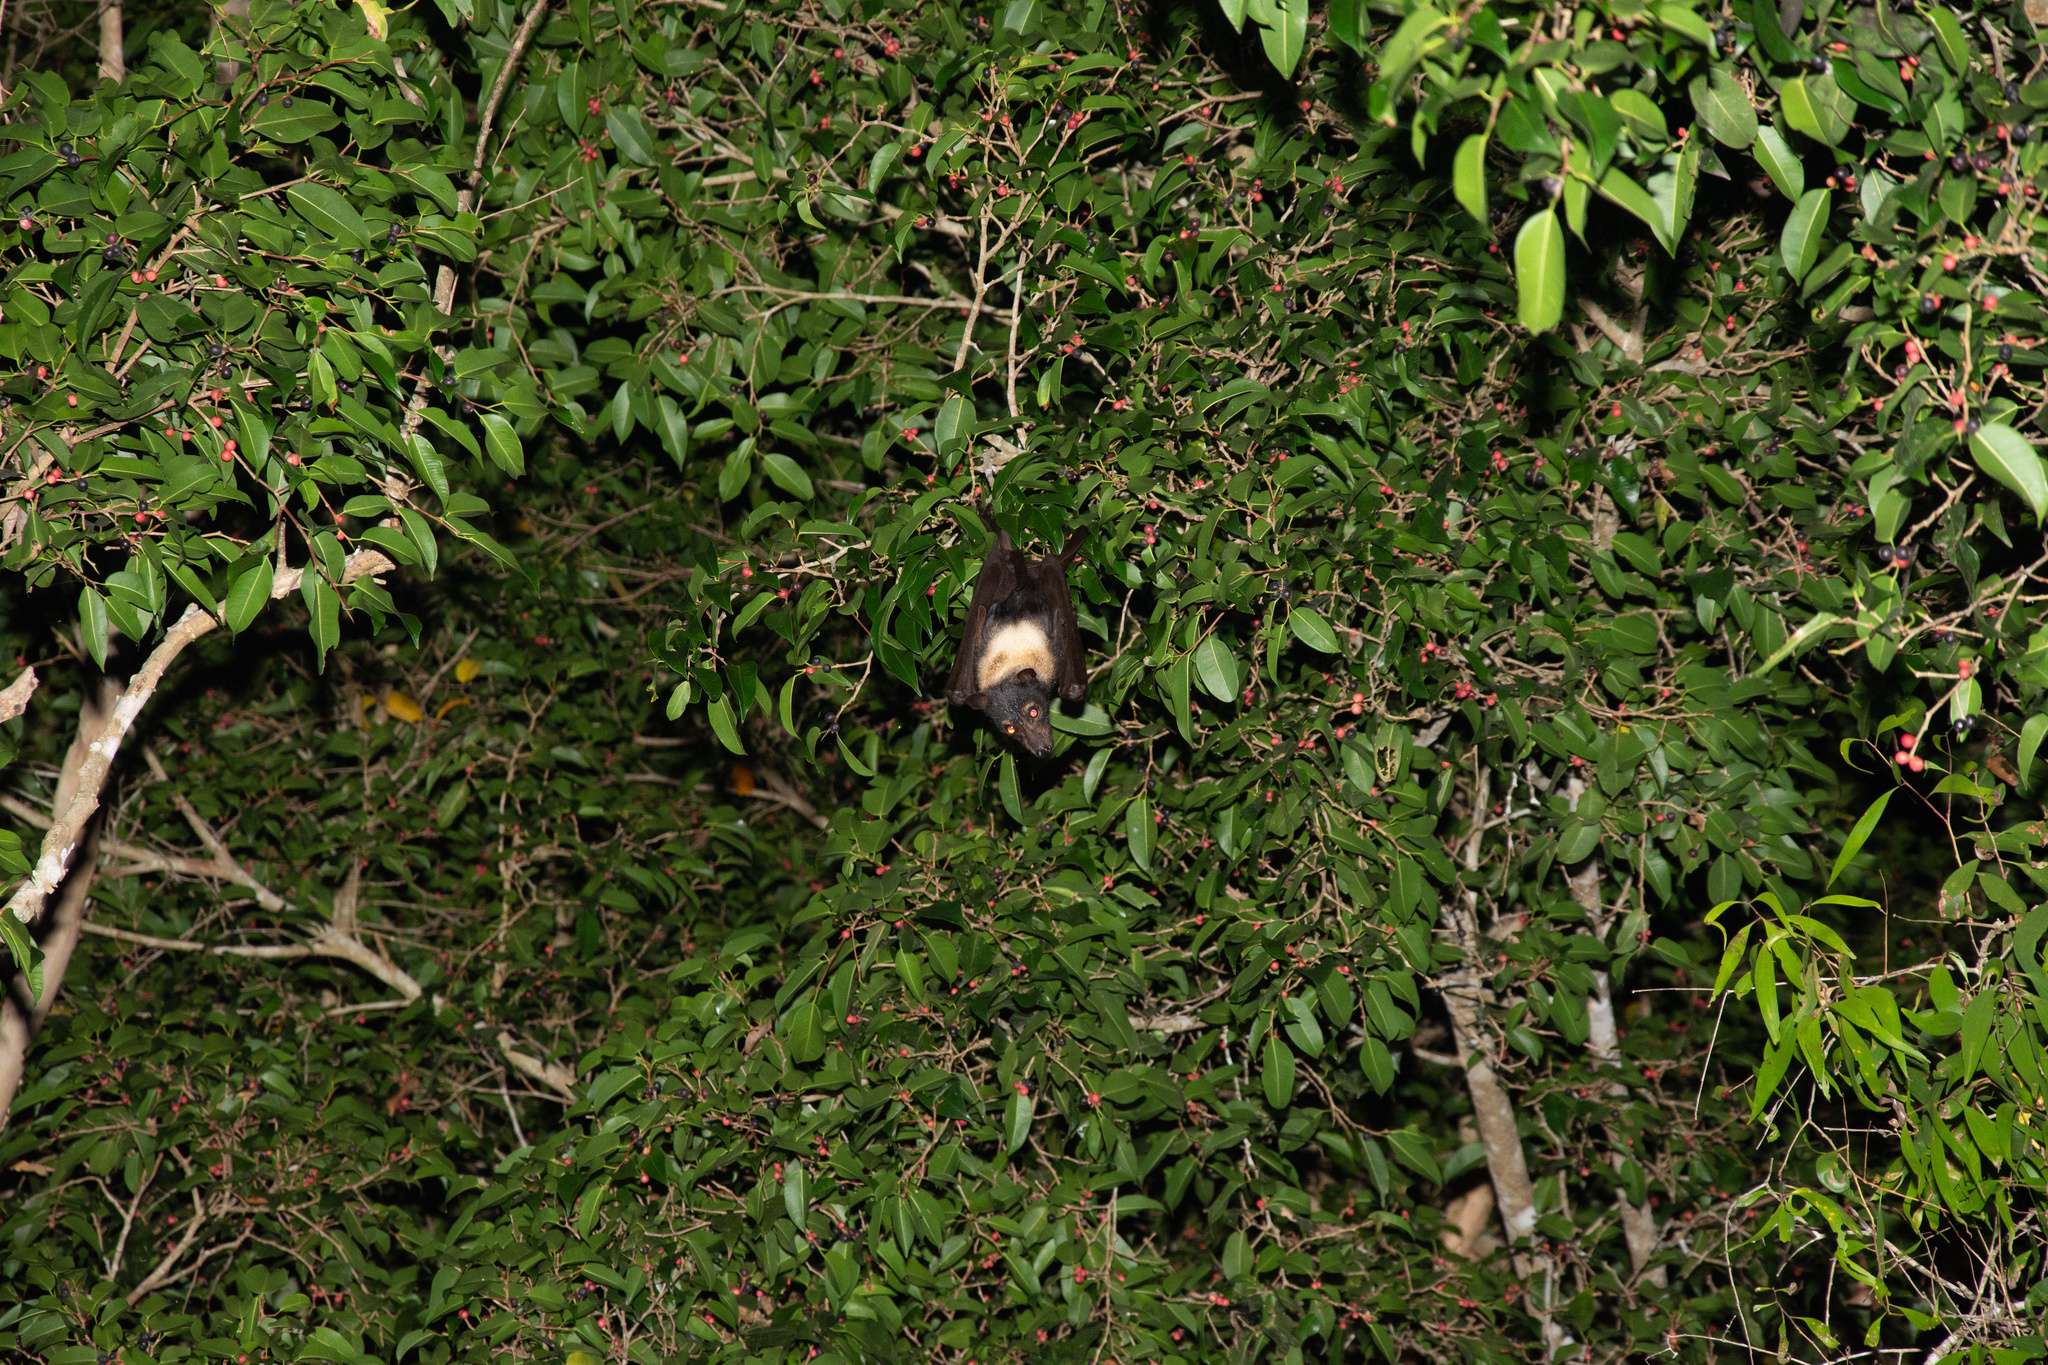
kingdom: Animalia
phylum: Chordata
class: Mammalia
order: Chiroptera
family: Pteropodidae
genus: Pteropus
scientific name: Pteropus conspicillatus
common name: Spectacled flying fox
